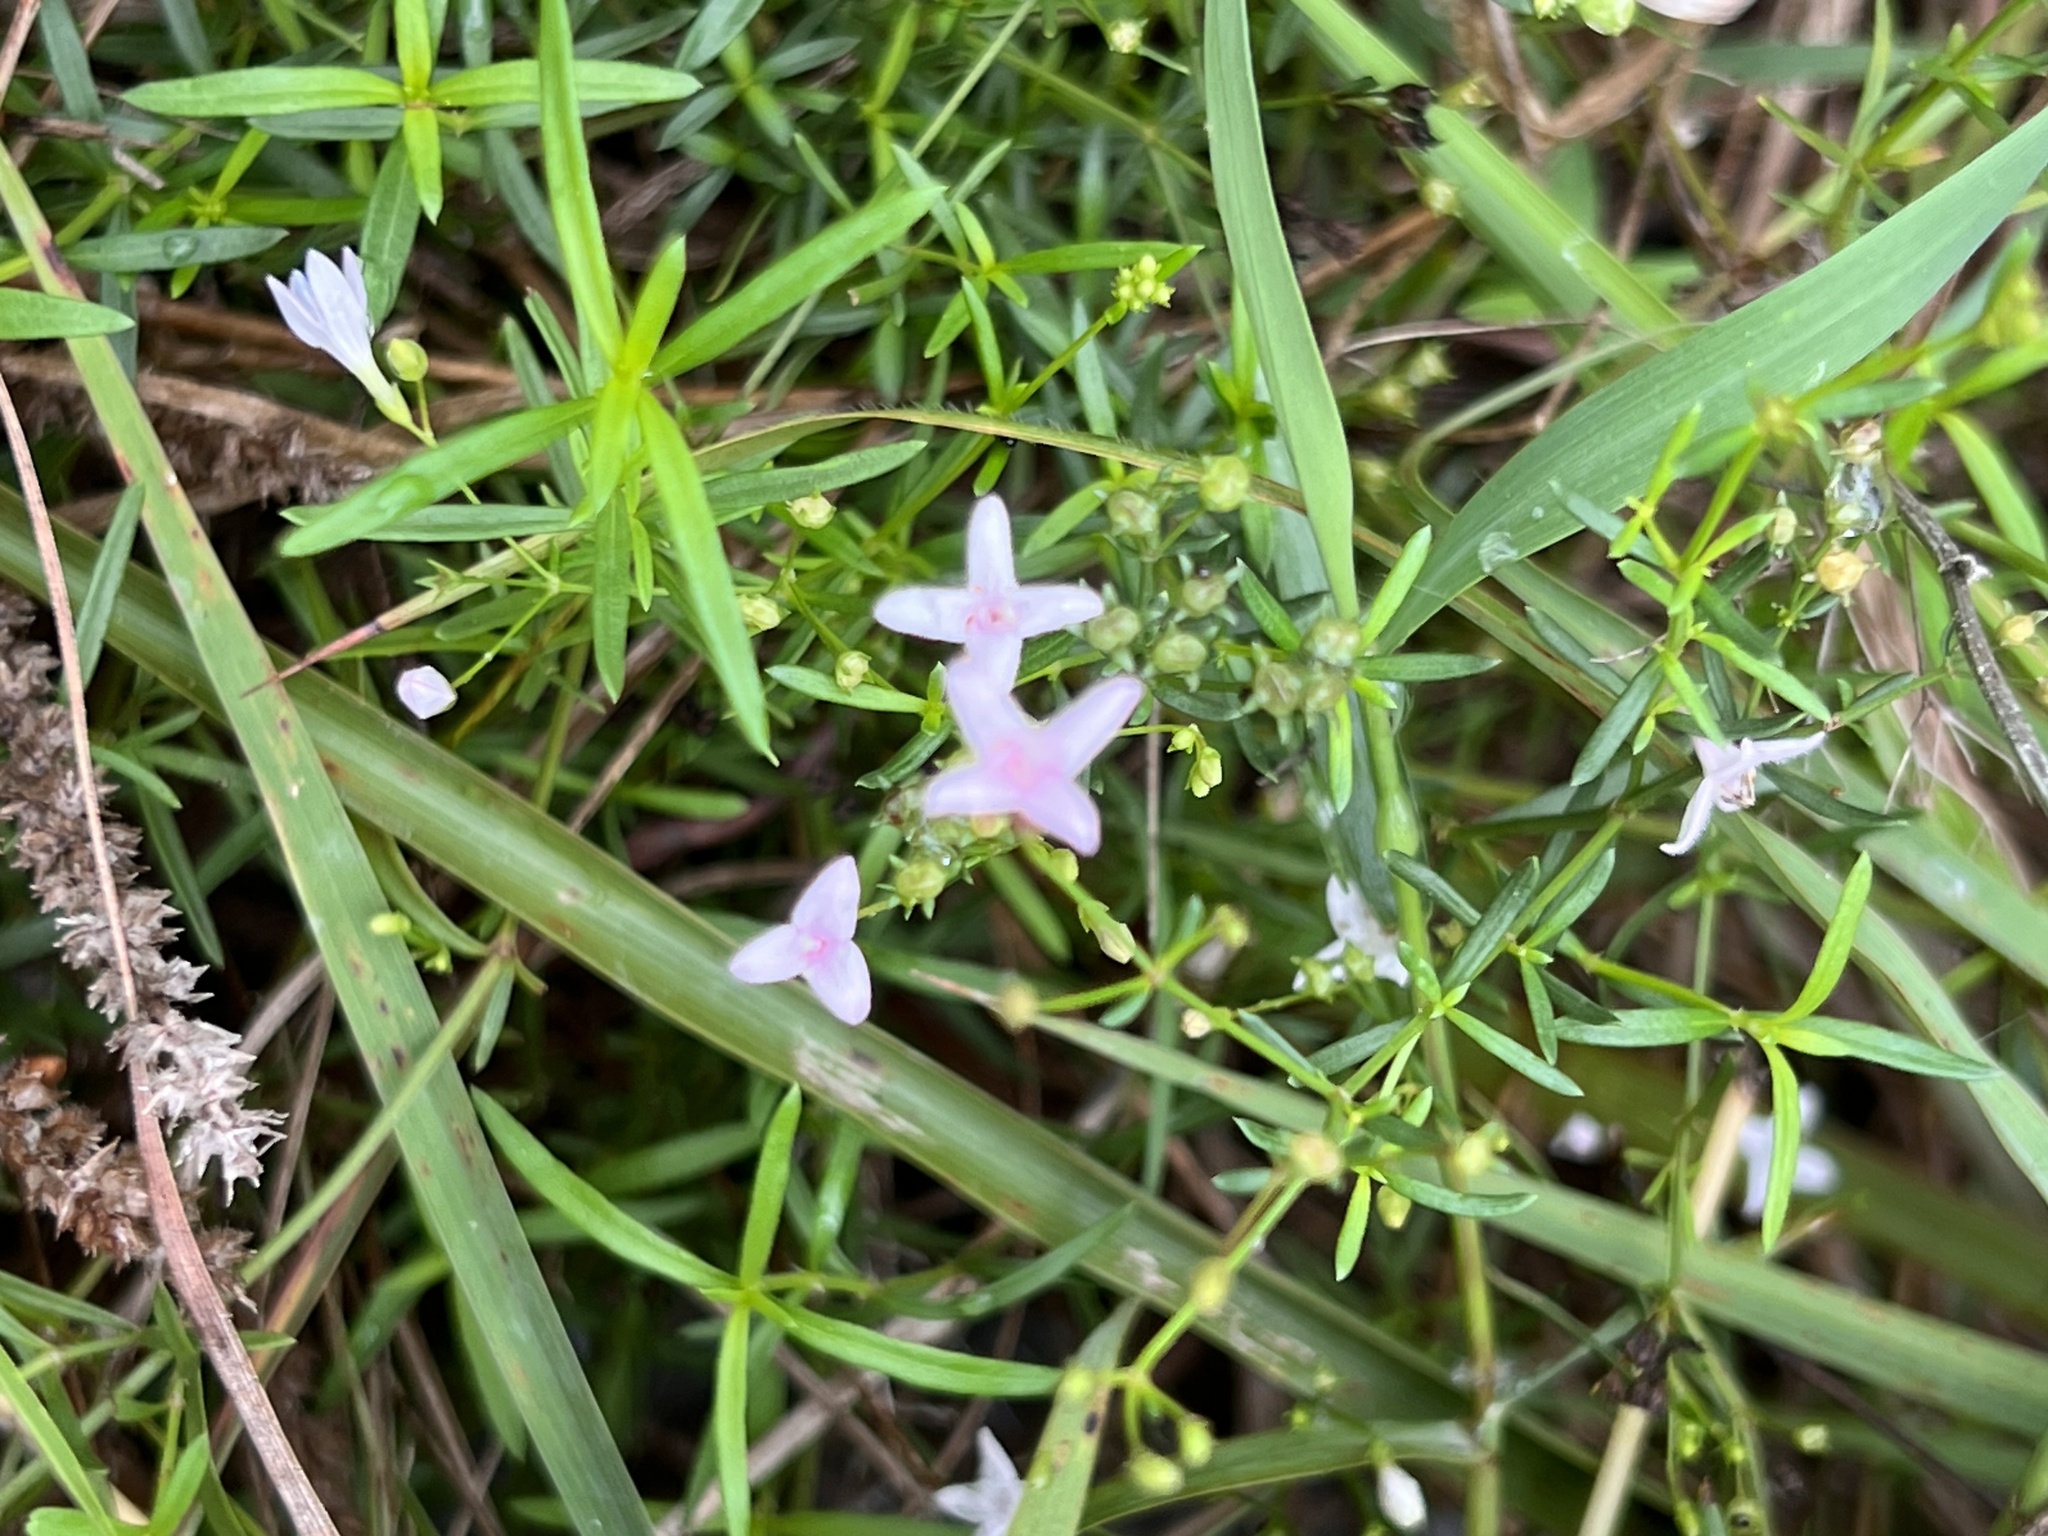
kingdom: Plantae
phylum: Tracheophyta
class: Magnoliopsida
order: Gentianales
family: Rubiaceae
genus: Stenaria
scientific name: Stenaria nigricans
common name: Diamondflowers
